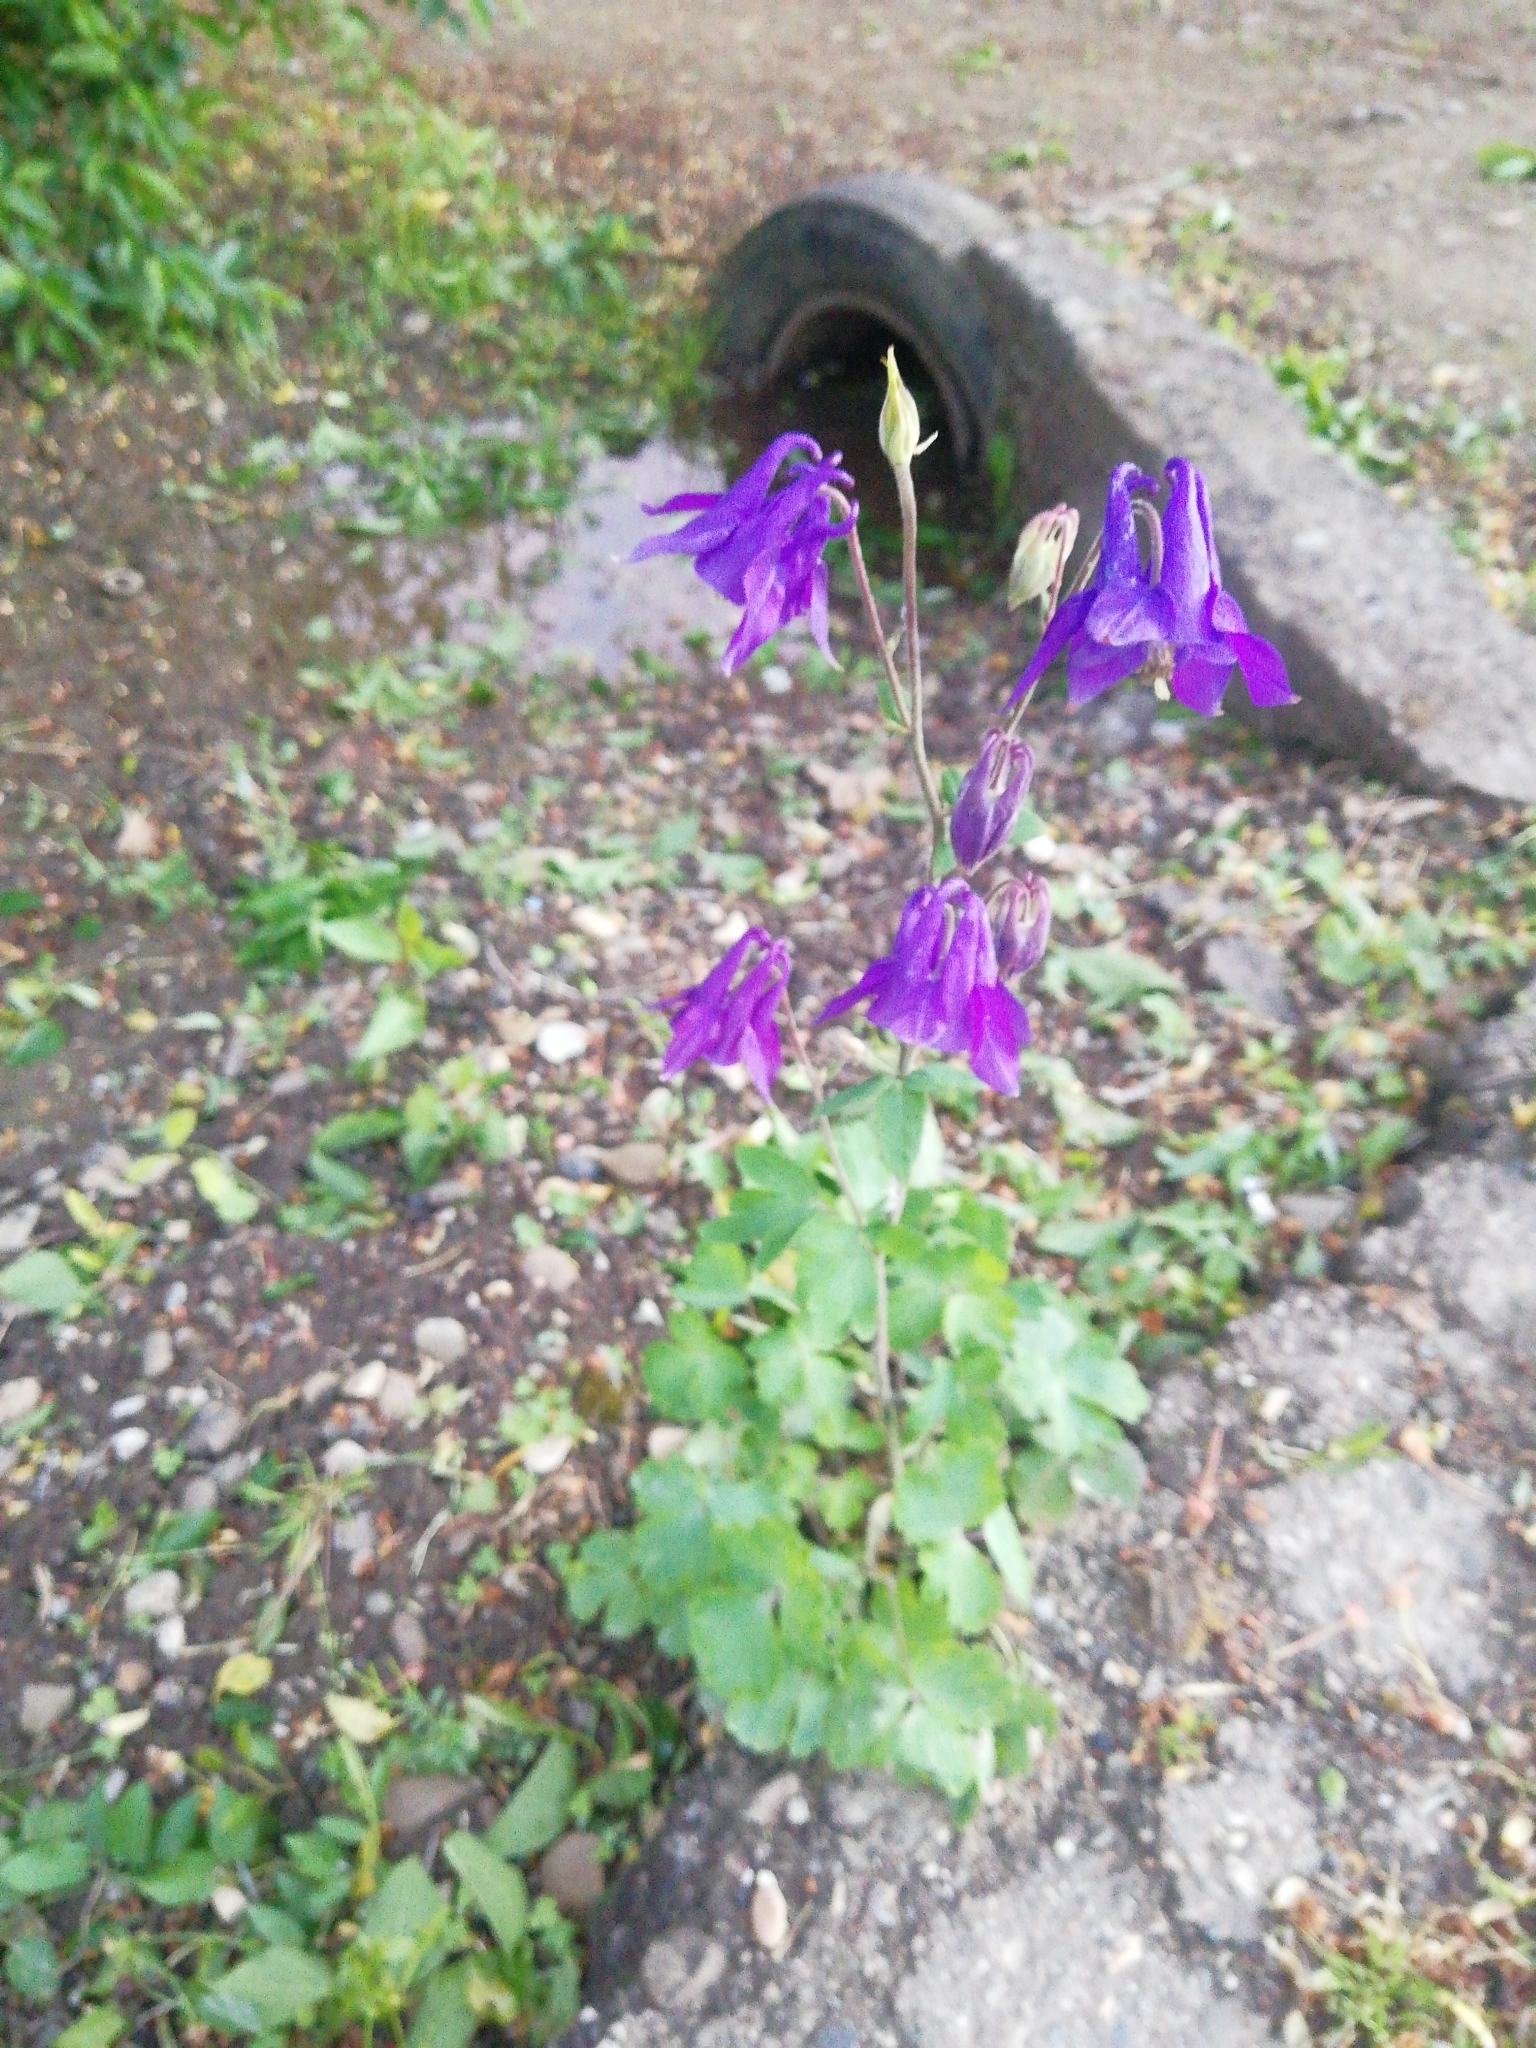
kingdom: Plantae
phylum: Tracheophyta
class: Magnoliopsida
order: Ranunculales
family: Ranunculaceae
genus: Aquilegia
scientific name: Aquilegia vulgaris
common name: Columbine
